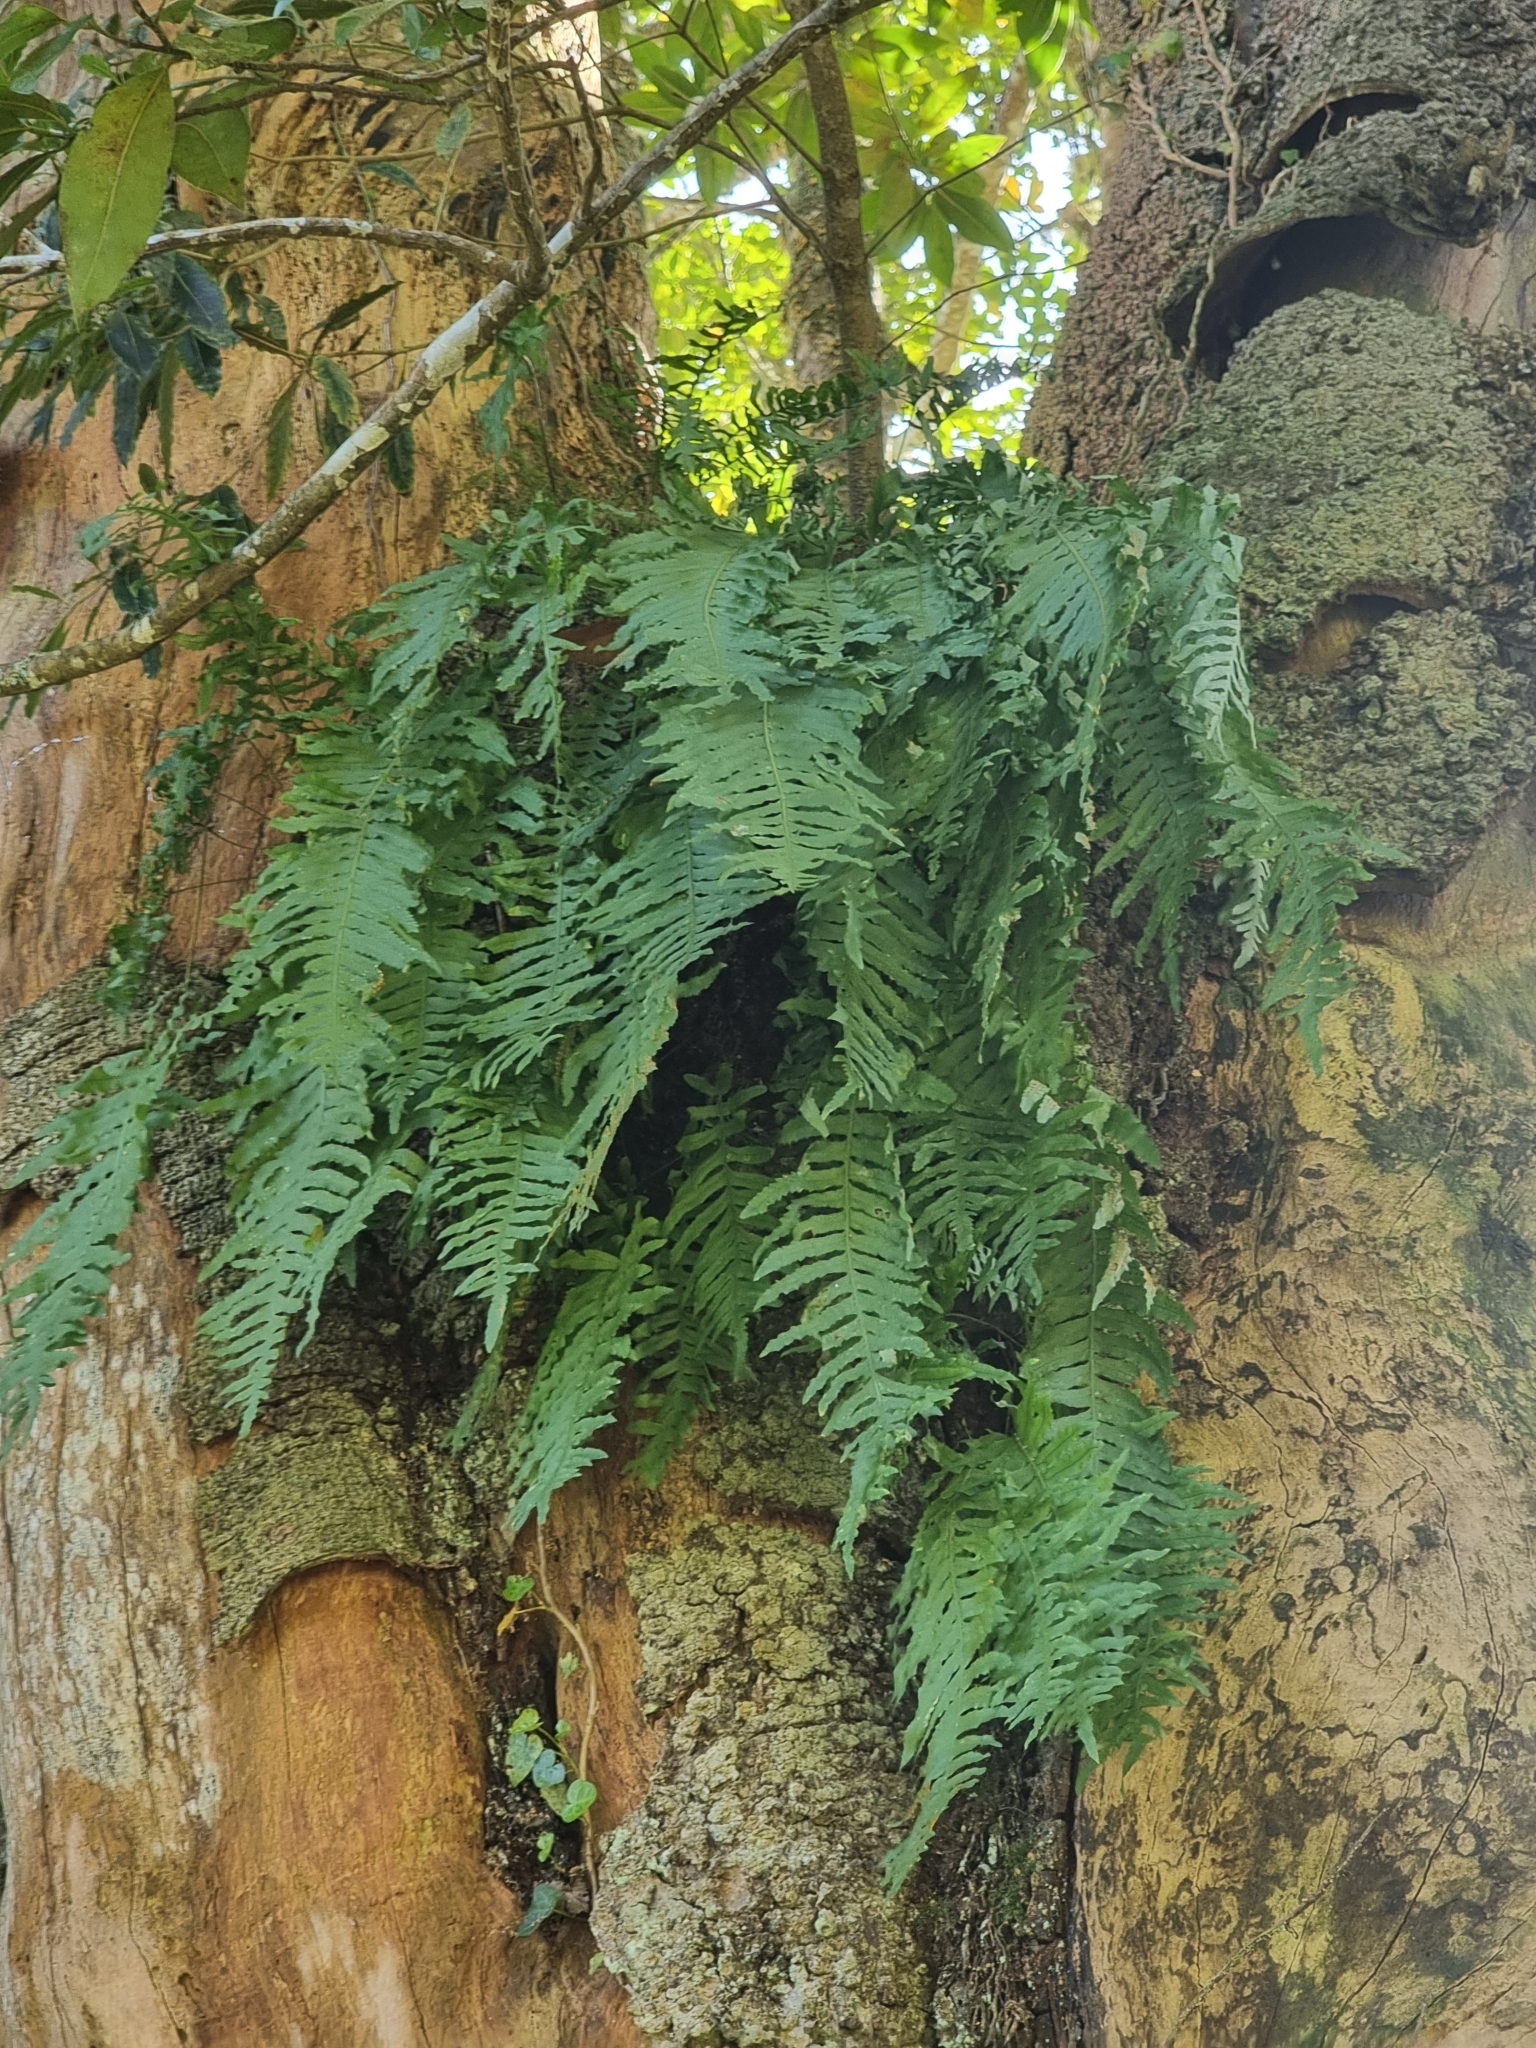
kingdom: Plantae
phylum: Tracheophyta
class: Polypodiopsida
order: Polypodiales
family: Polypodiaceae
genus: Polypodium
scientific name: Polypodium macaronesicum
